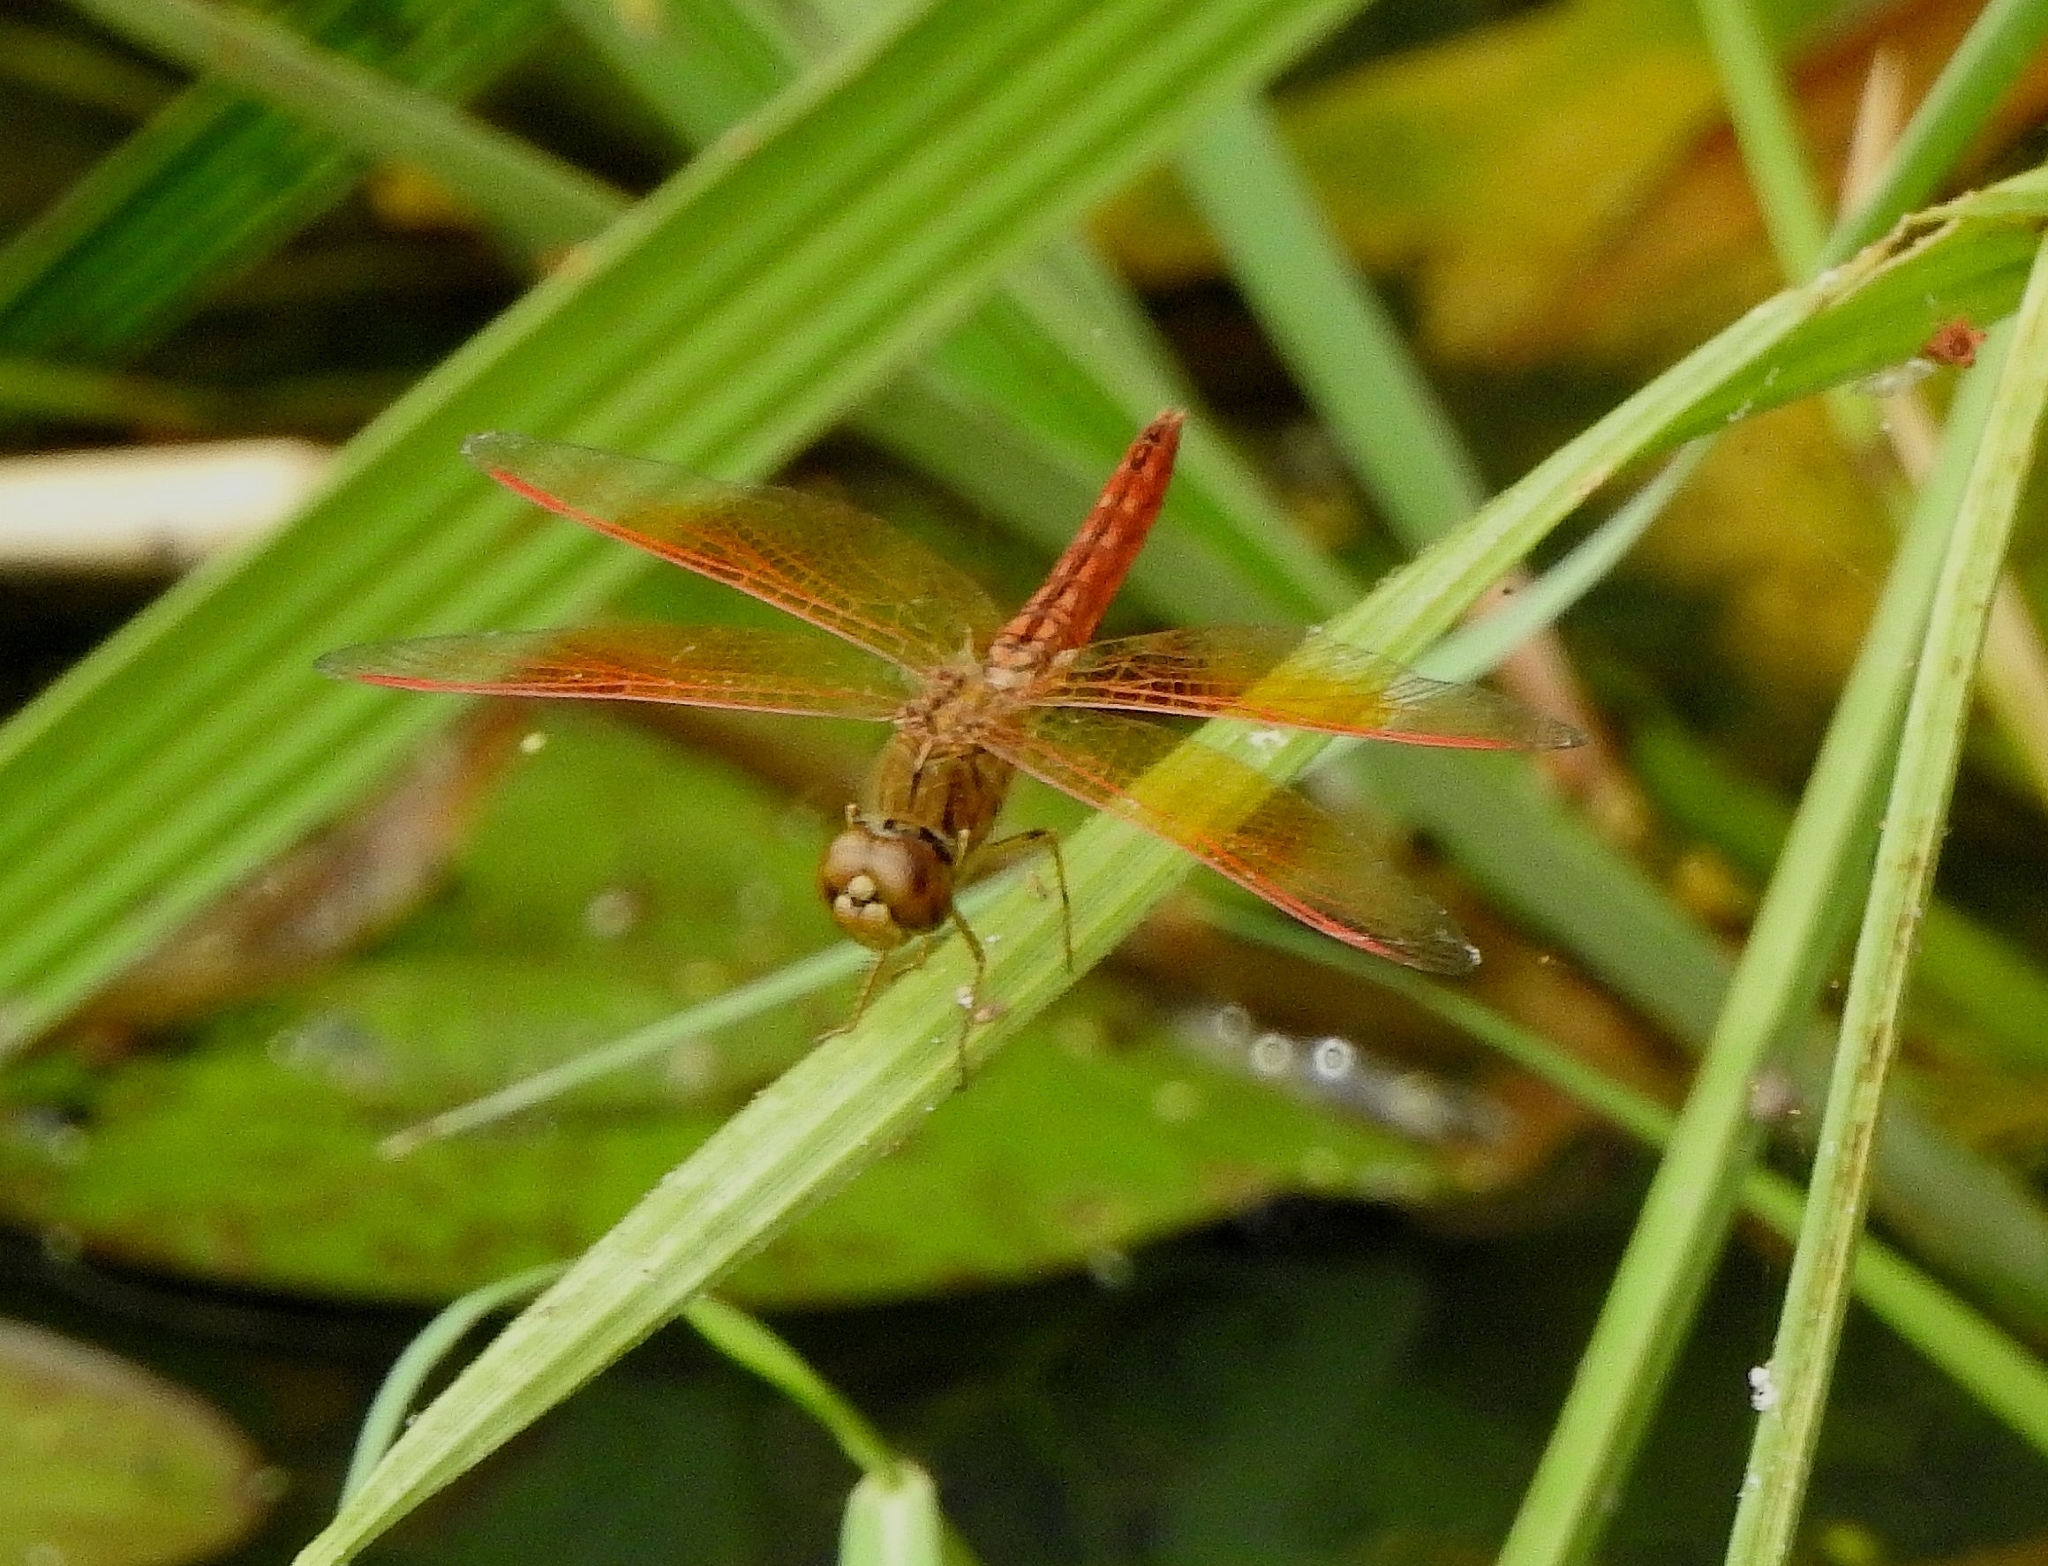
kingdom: Animalia
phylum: Arthropoda
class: Insecta
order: Odonata
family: Libellulidae
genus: Brachythemis
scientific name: Brachythemis contaminata
